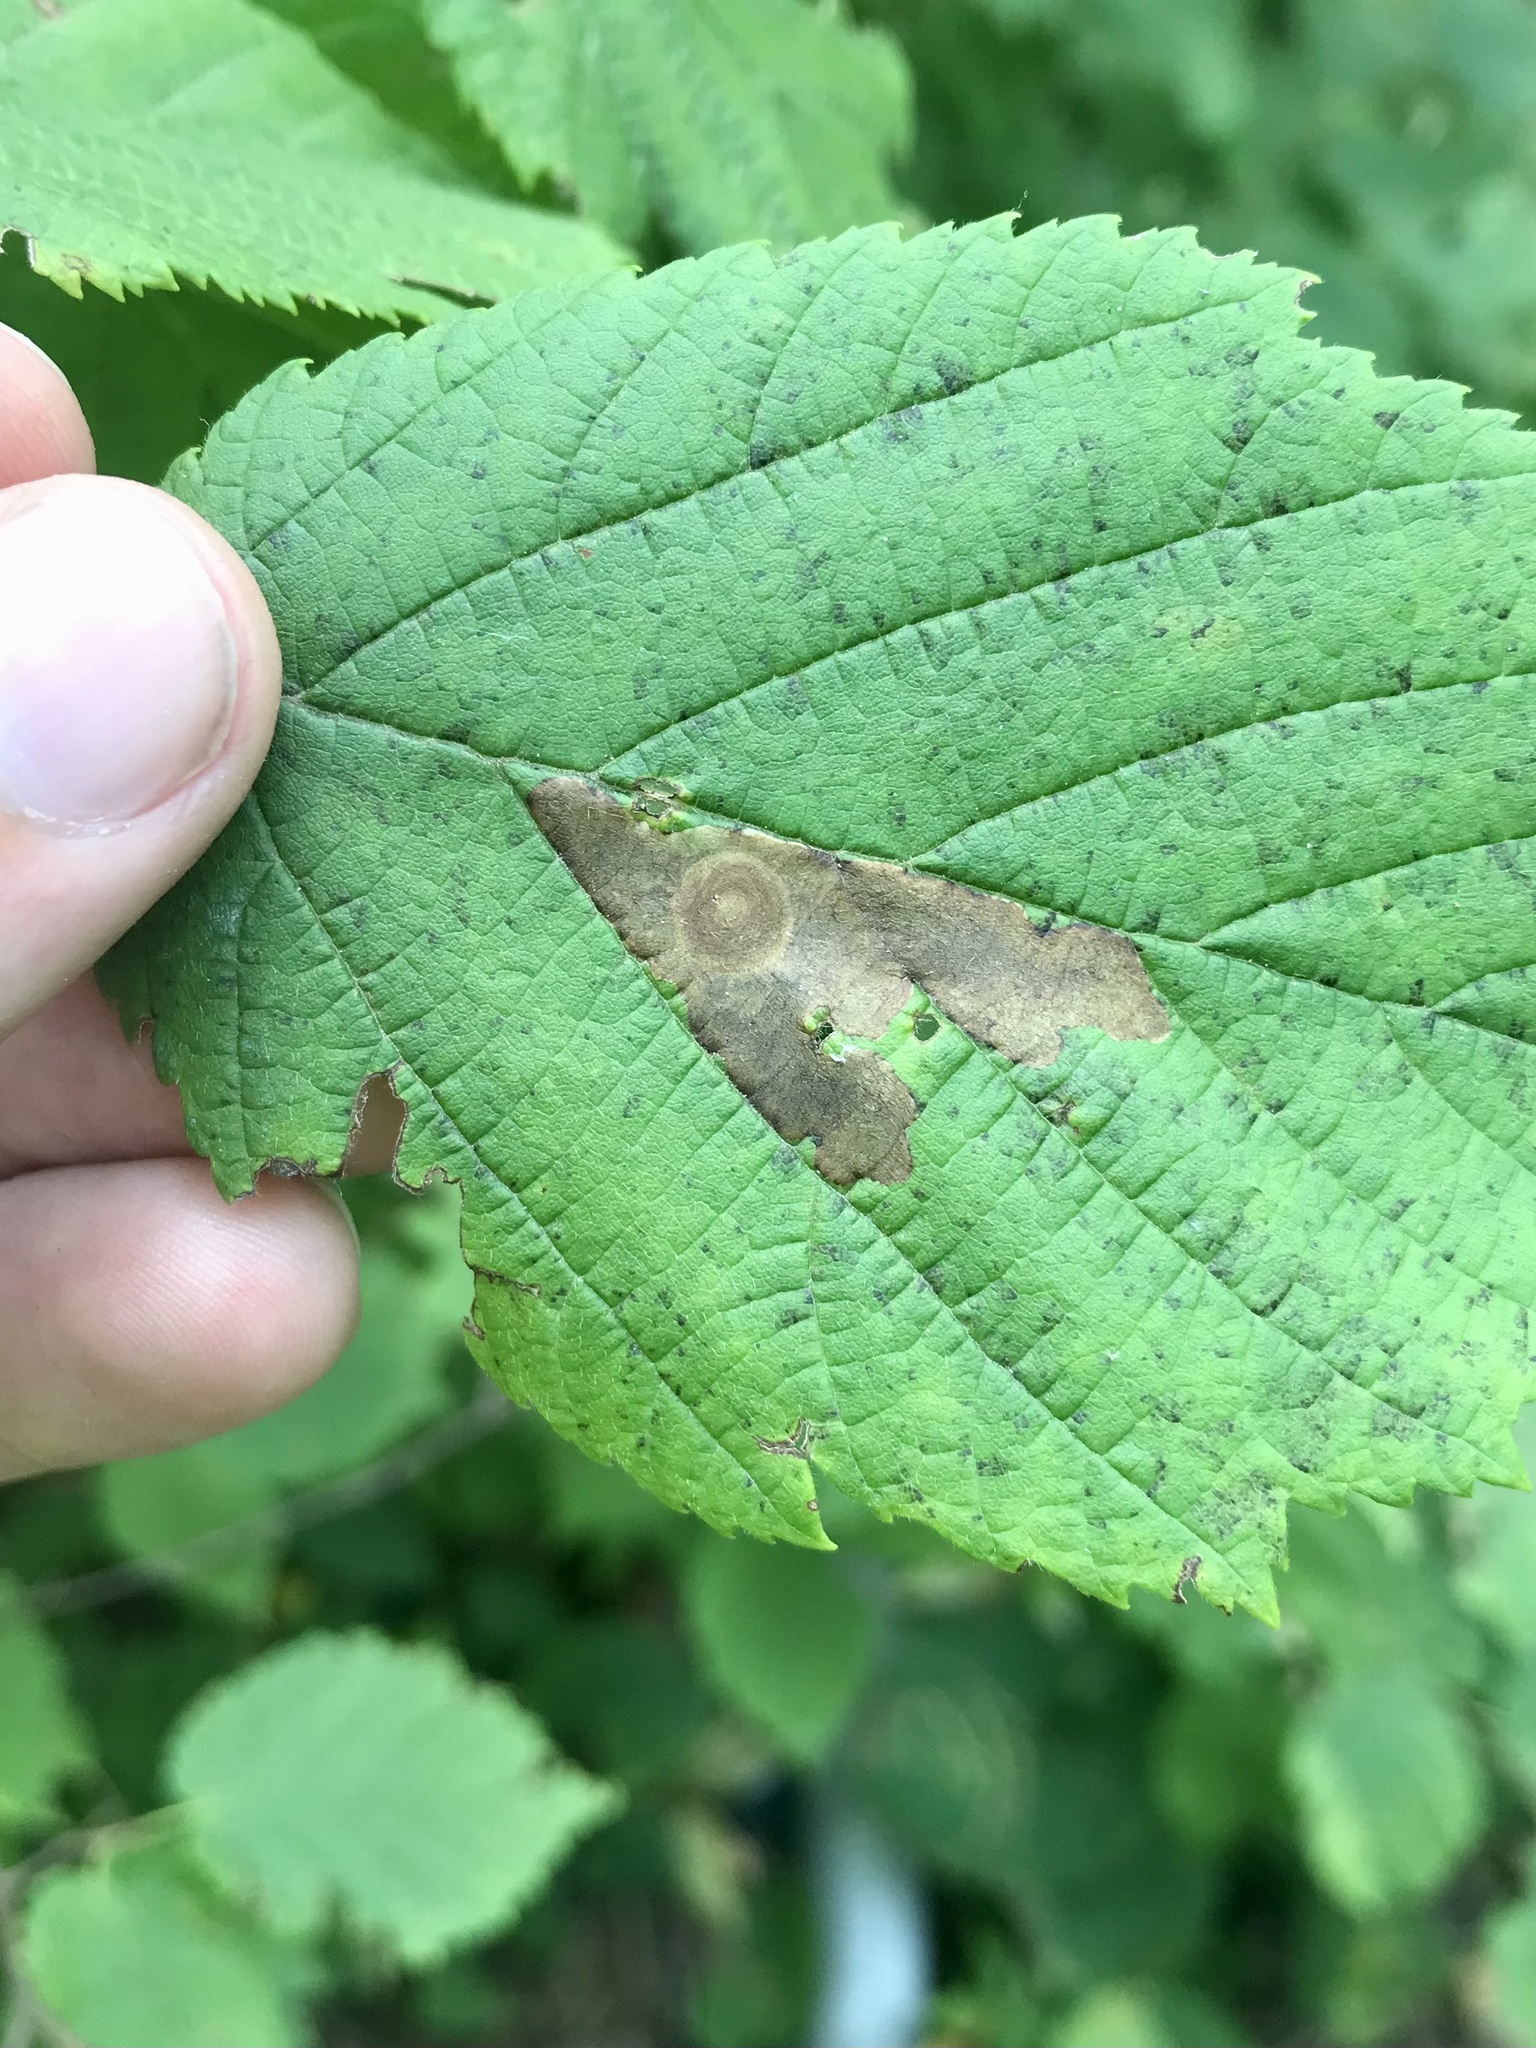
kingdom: Animalia
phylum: Arthropoda
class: Insecta
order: Lepidoptera
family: Gracillariidae
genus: Cameraria
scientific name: Cameraria corylisella
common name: Hazel blotchminer
